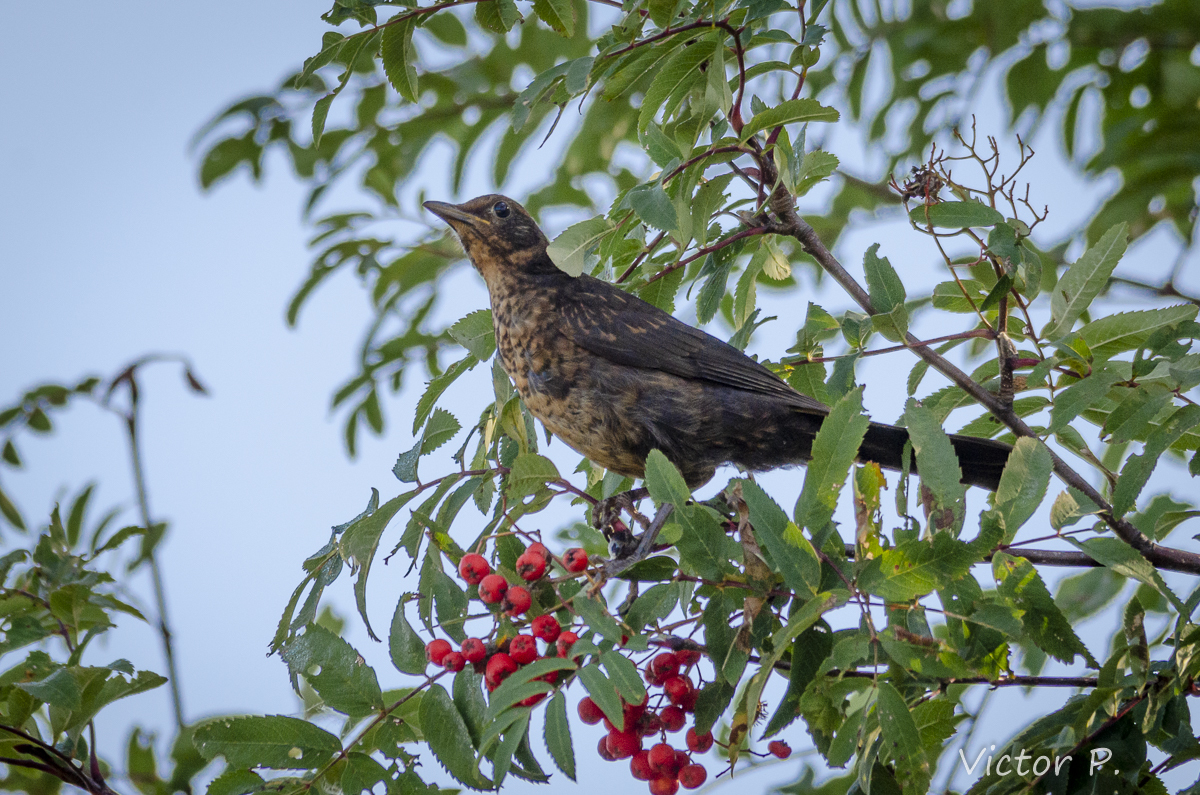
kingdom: Animalia
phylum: Chordata
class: Aves
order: Passeriformes
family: Turdidae
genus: Turdus
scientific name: Turdus merula
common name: Common blackbird
